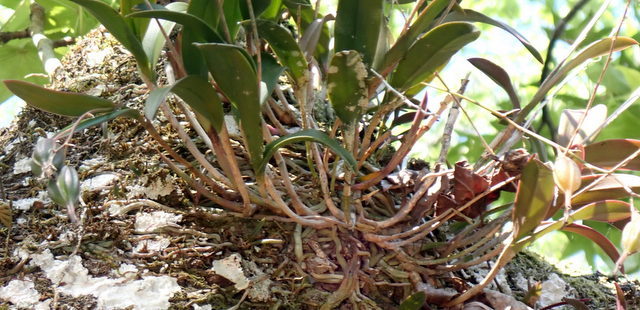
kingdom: Plantae
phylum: Tracheophyta
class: Liliopsida
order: Asparagales
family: Orchidaceae
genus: Epidendrum
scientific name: Epidendrum conopseum
